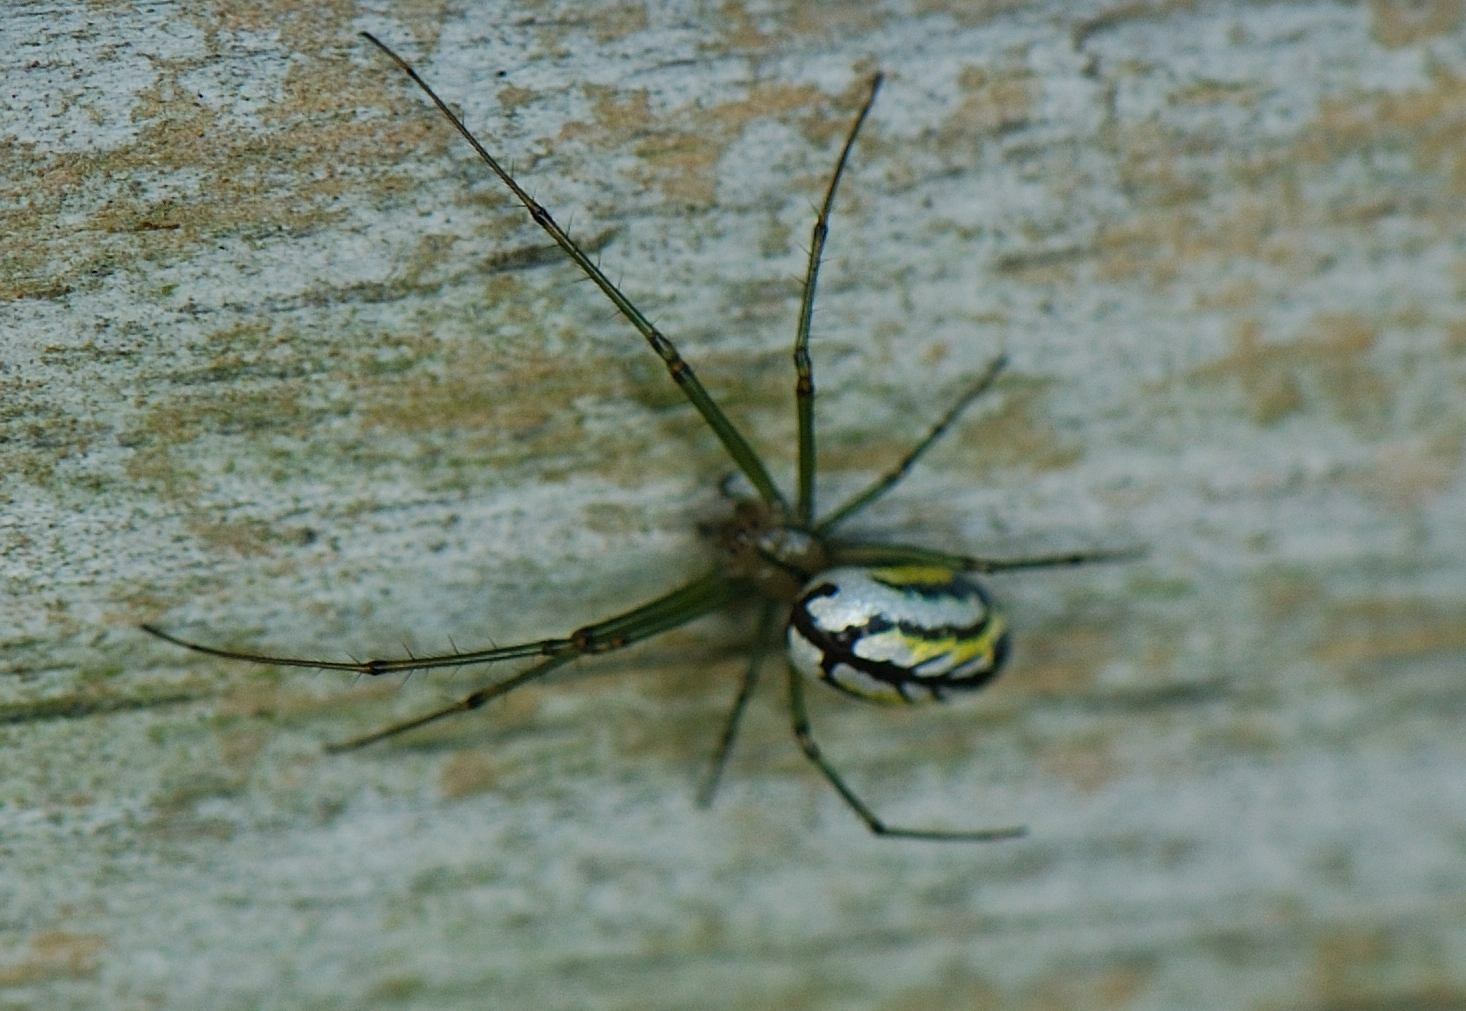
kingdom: Animalia
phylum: Arthropoda
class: Arachnida
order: Araneae
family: Tetragnathidae
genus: Leucauge
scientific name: Leucauge venusta
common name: Longjawed orb weavers
